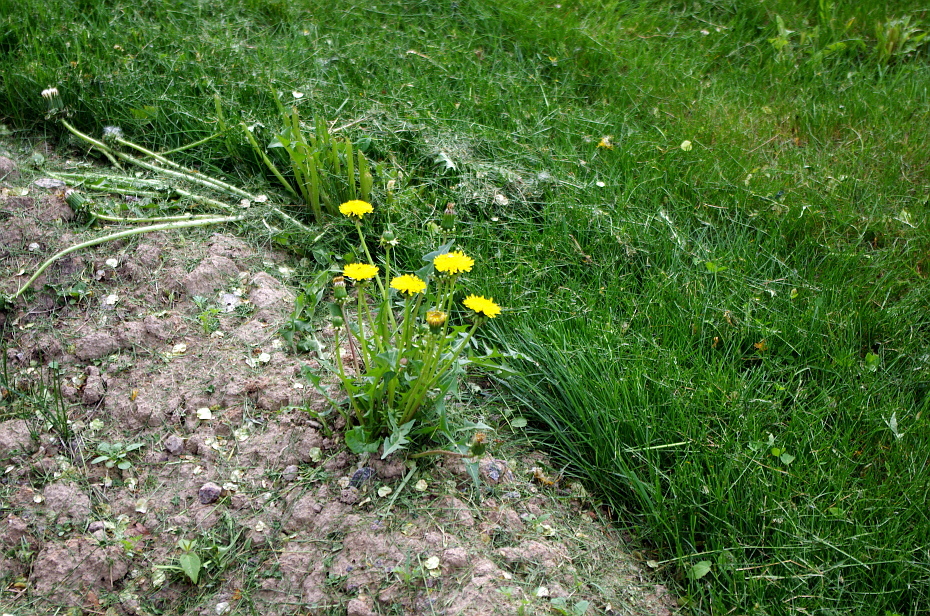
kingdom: Plantae
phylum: Tracheophyta
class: Magnoliopsida
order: Asterales
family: Asteraceae
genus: Taraxacum
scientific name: Taraxacum officinale
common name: Common dandelion
